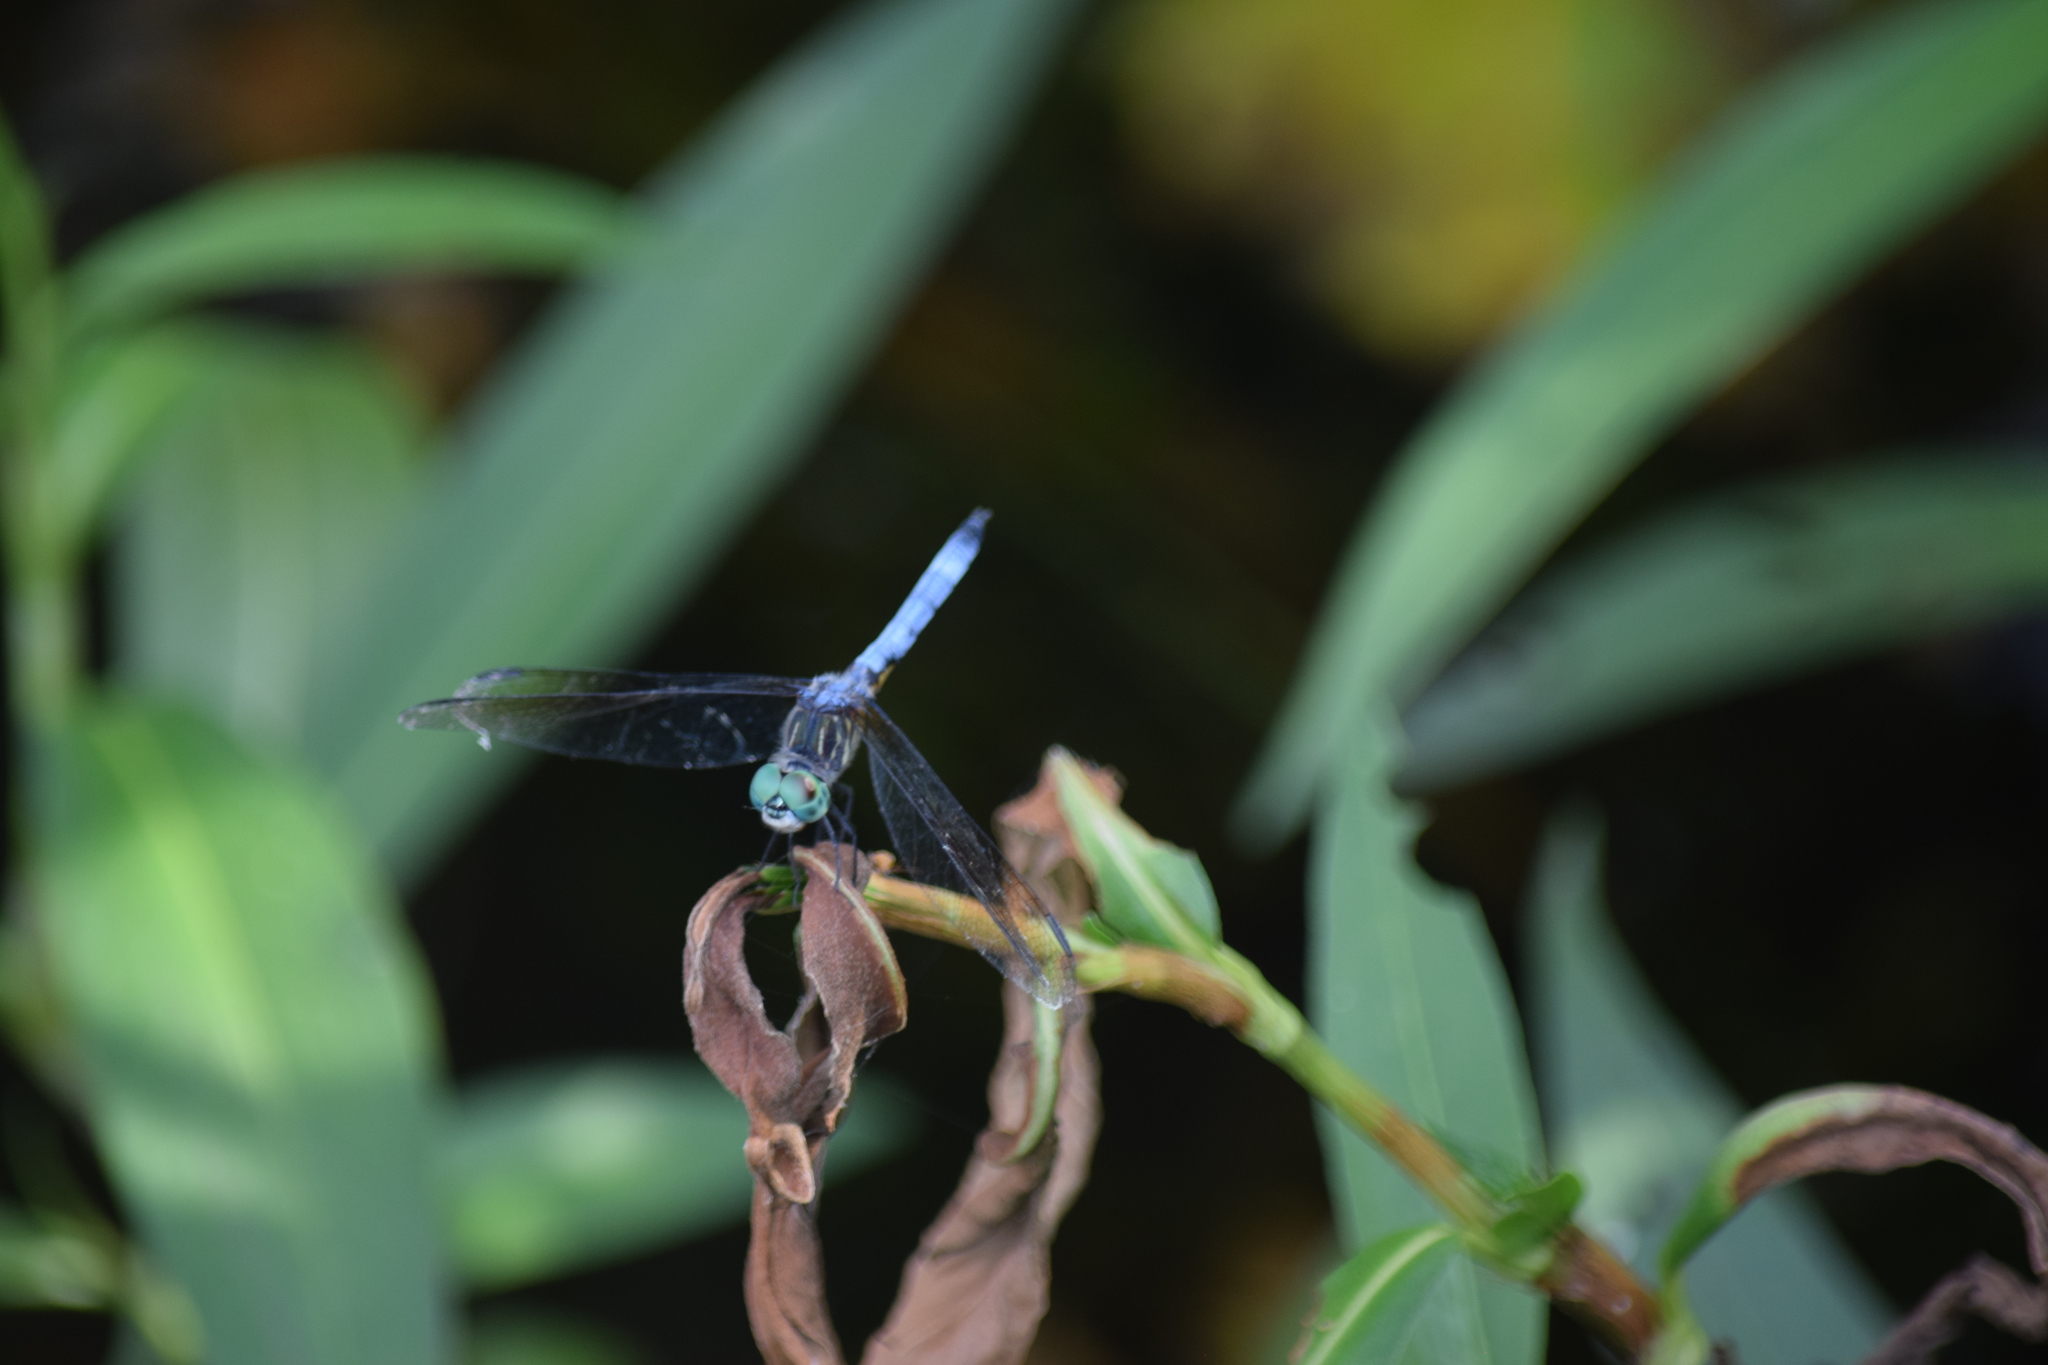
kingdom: Animalia
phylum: Arthropoda
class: Insecta
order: Odonata
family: Libellulidae
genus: Pachydiplax
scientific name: Pachydiplax longipennis
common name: Blue dasher
